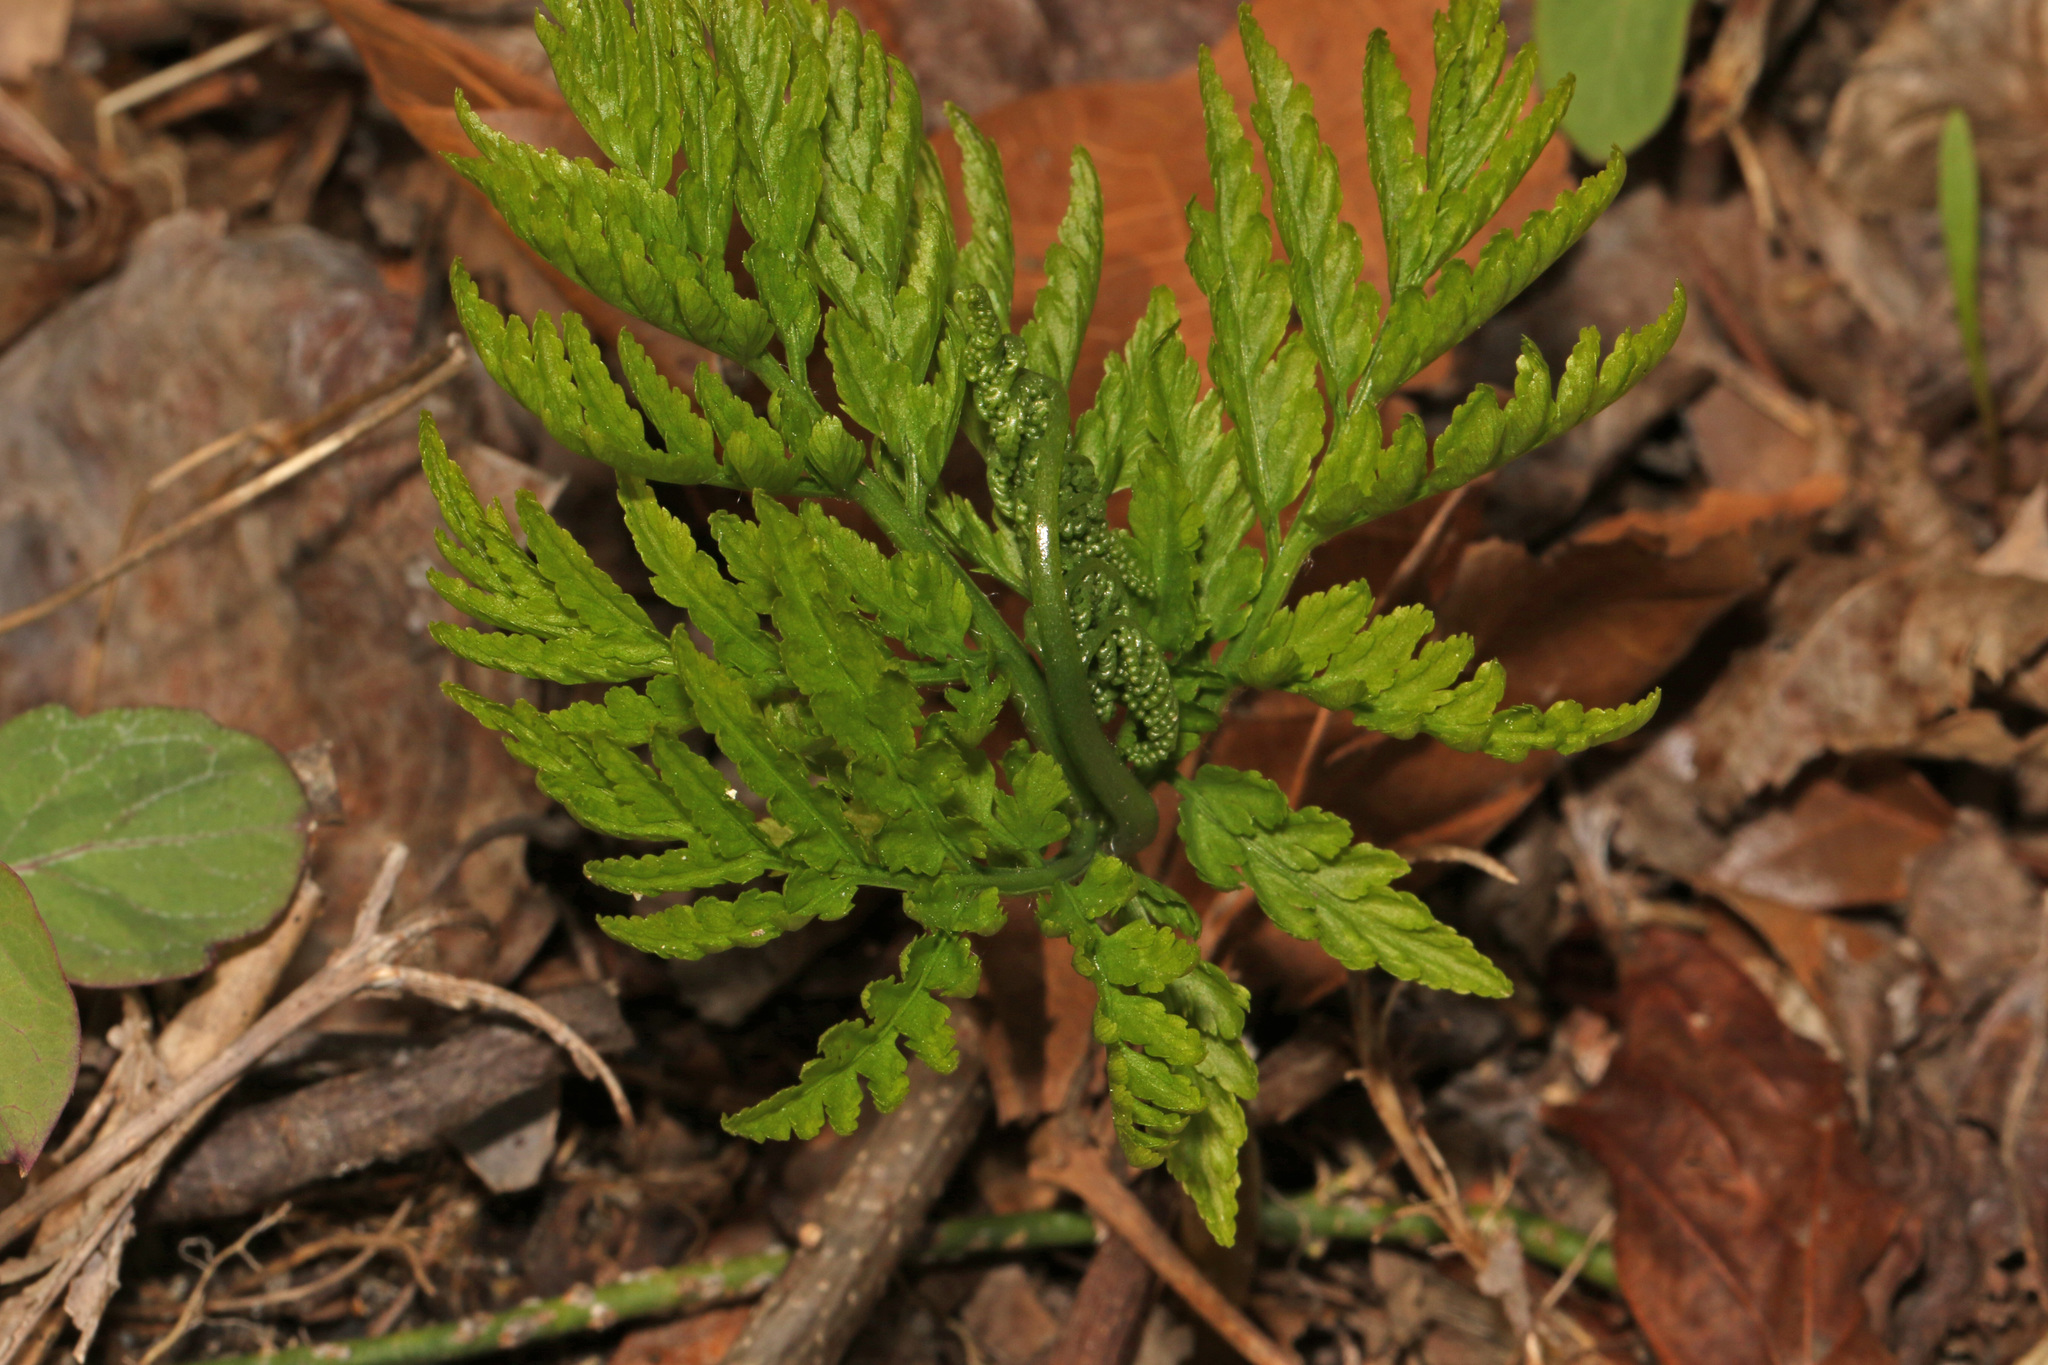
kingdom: Plantae
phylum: Tracheophyta
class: Polypodiopsida
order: Ophioglossales
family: Ophioglossaceae
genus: Botrypus
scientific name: Botrypus virginianus
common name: Common grapefern
